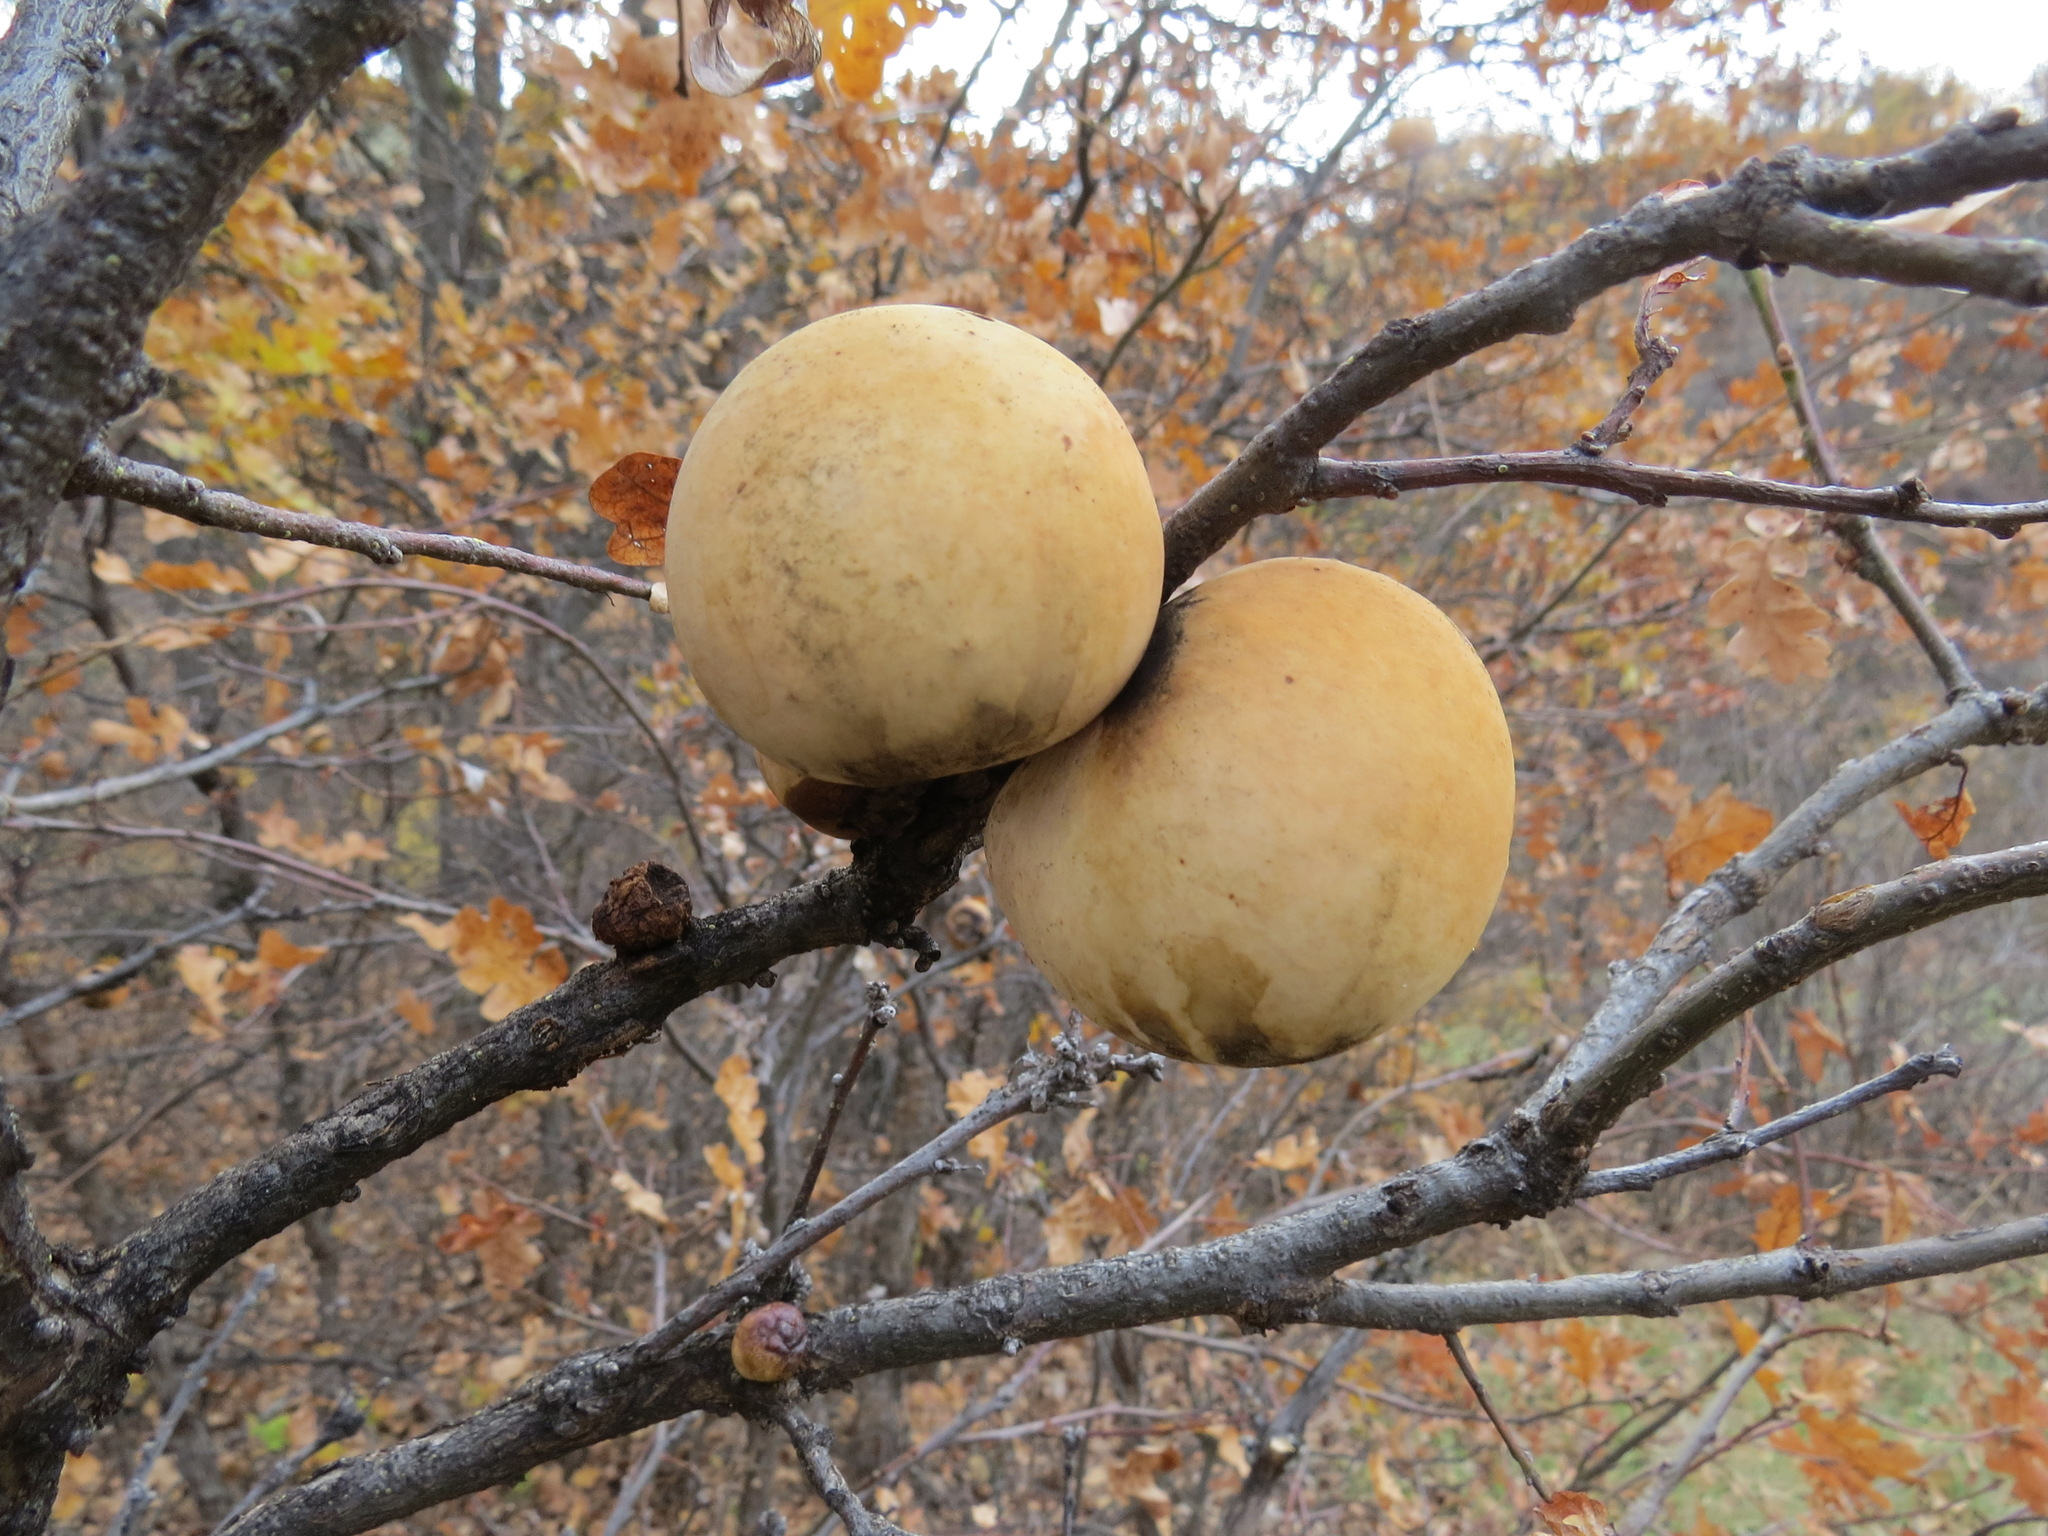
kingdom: Animalia
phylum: Arthropoda
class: Insecta
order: Hymenoptera
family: Cynipidae
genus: Andricus
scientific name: Andricus quercuscalifornicus
